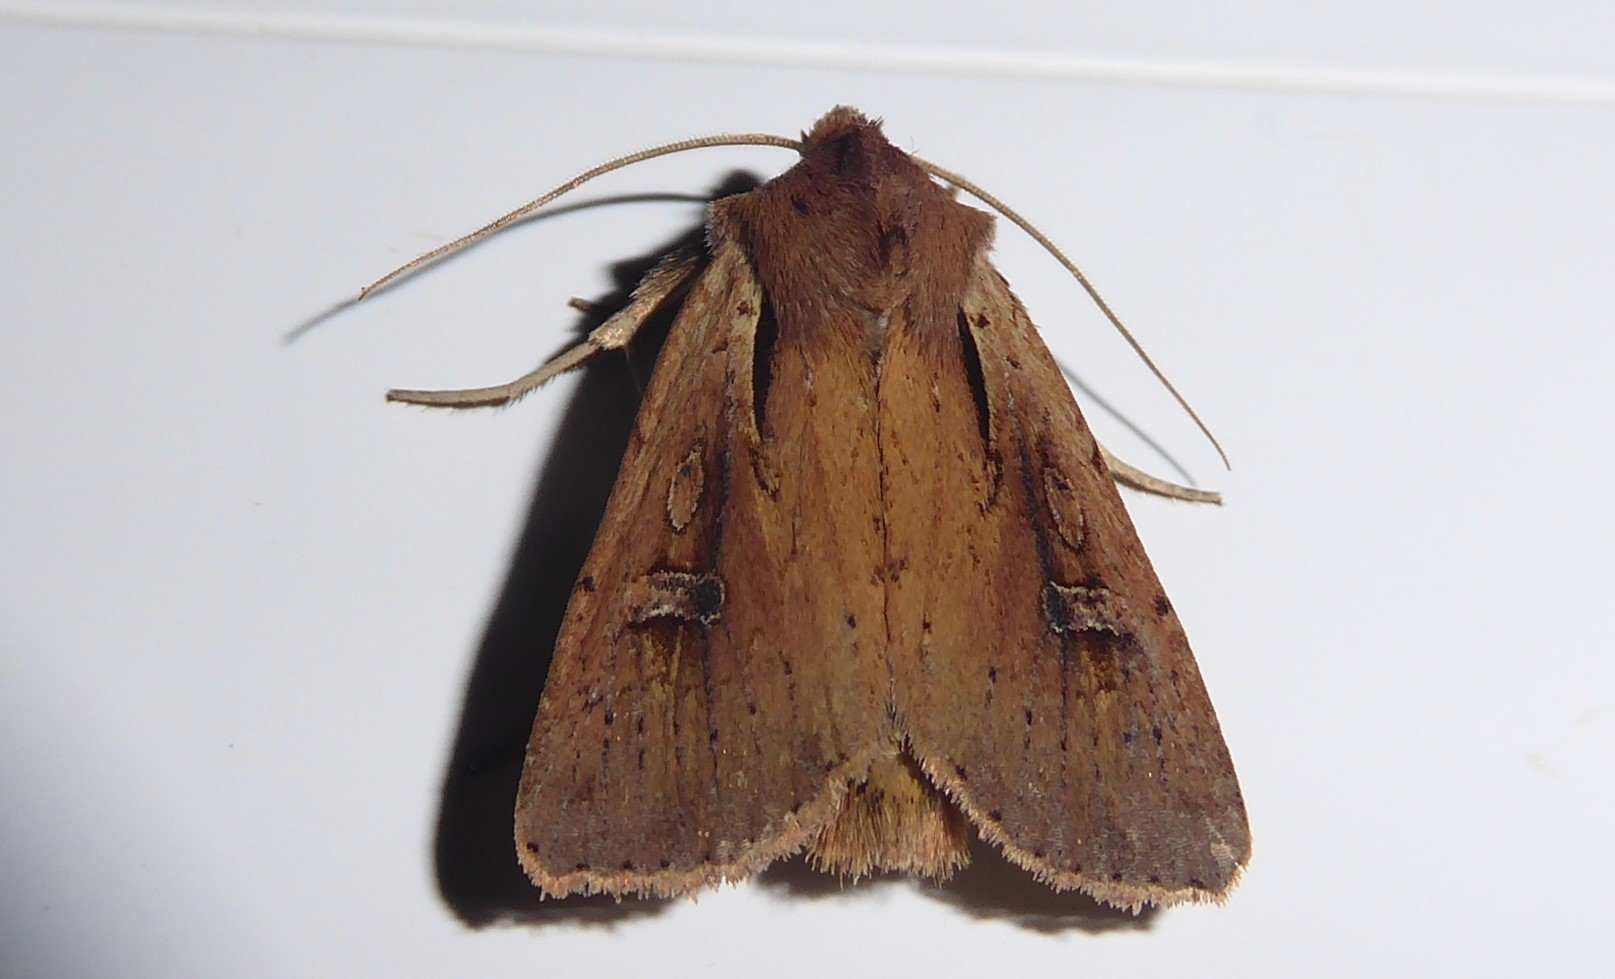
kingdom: Animalia
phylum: Arthropoda
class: Insecta
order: Lepidoptera
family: Noctuidae
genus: Ichneutica
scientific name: Ichneutica atristriga
